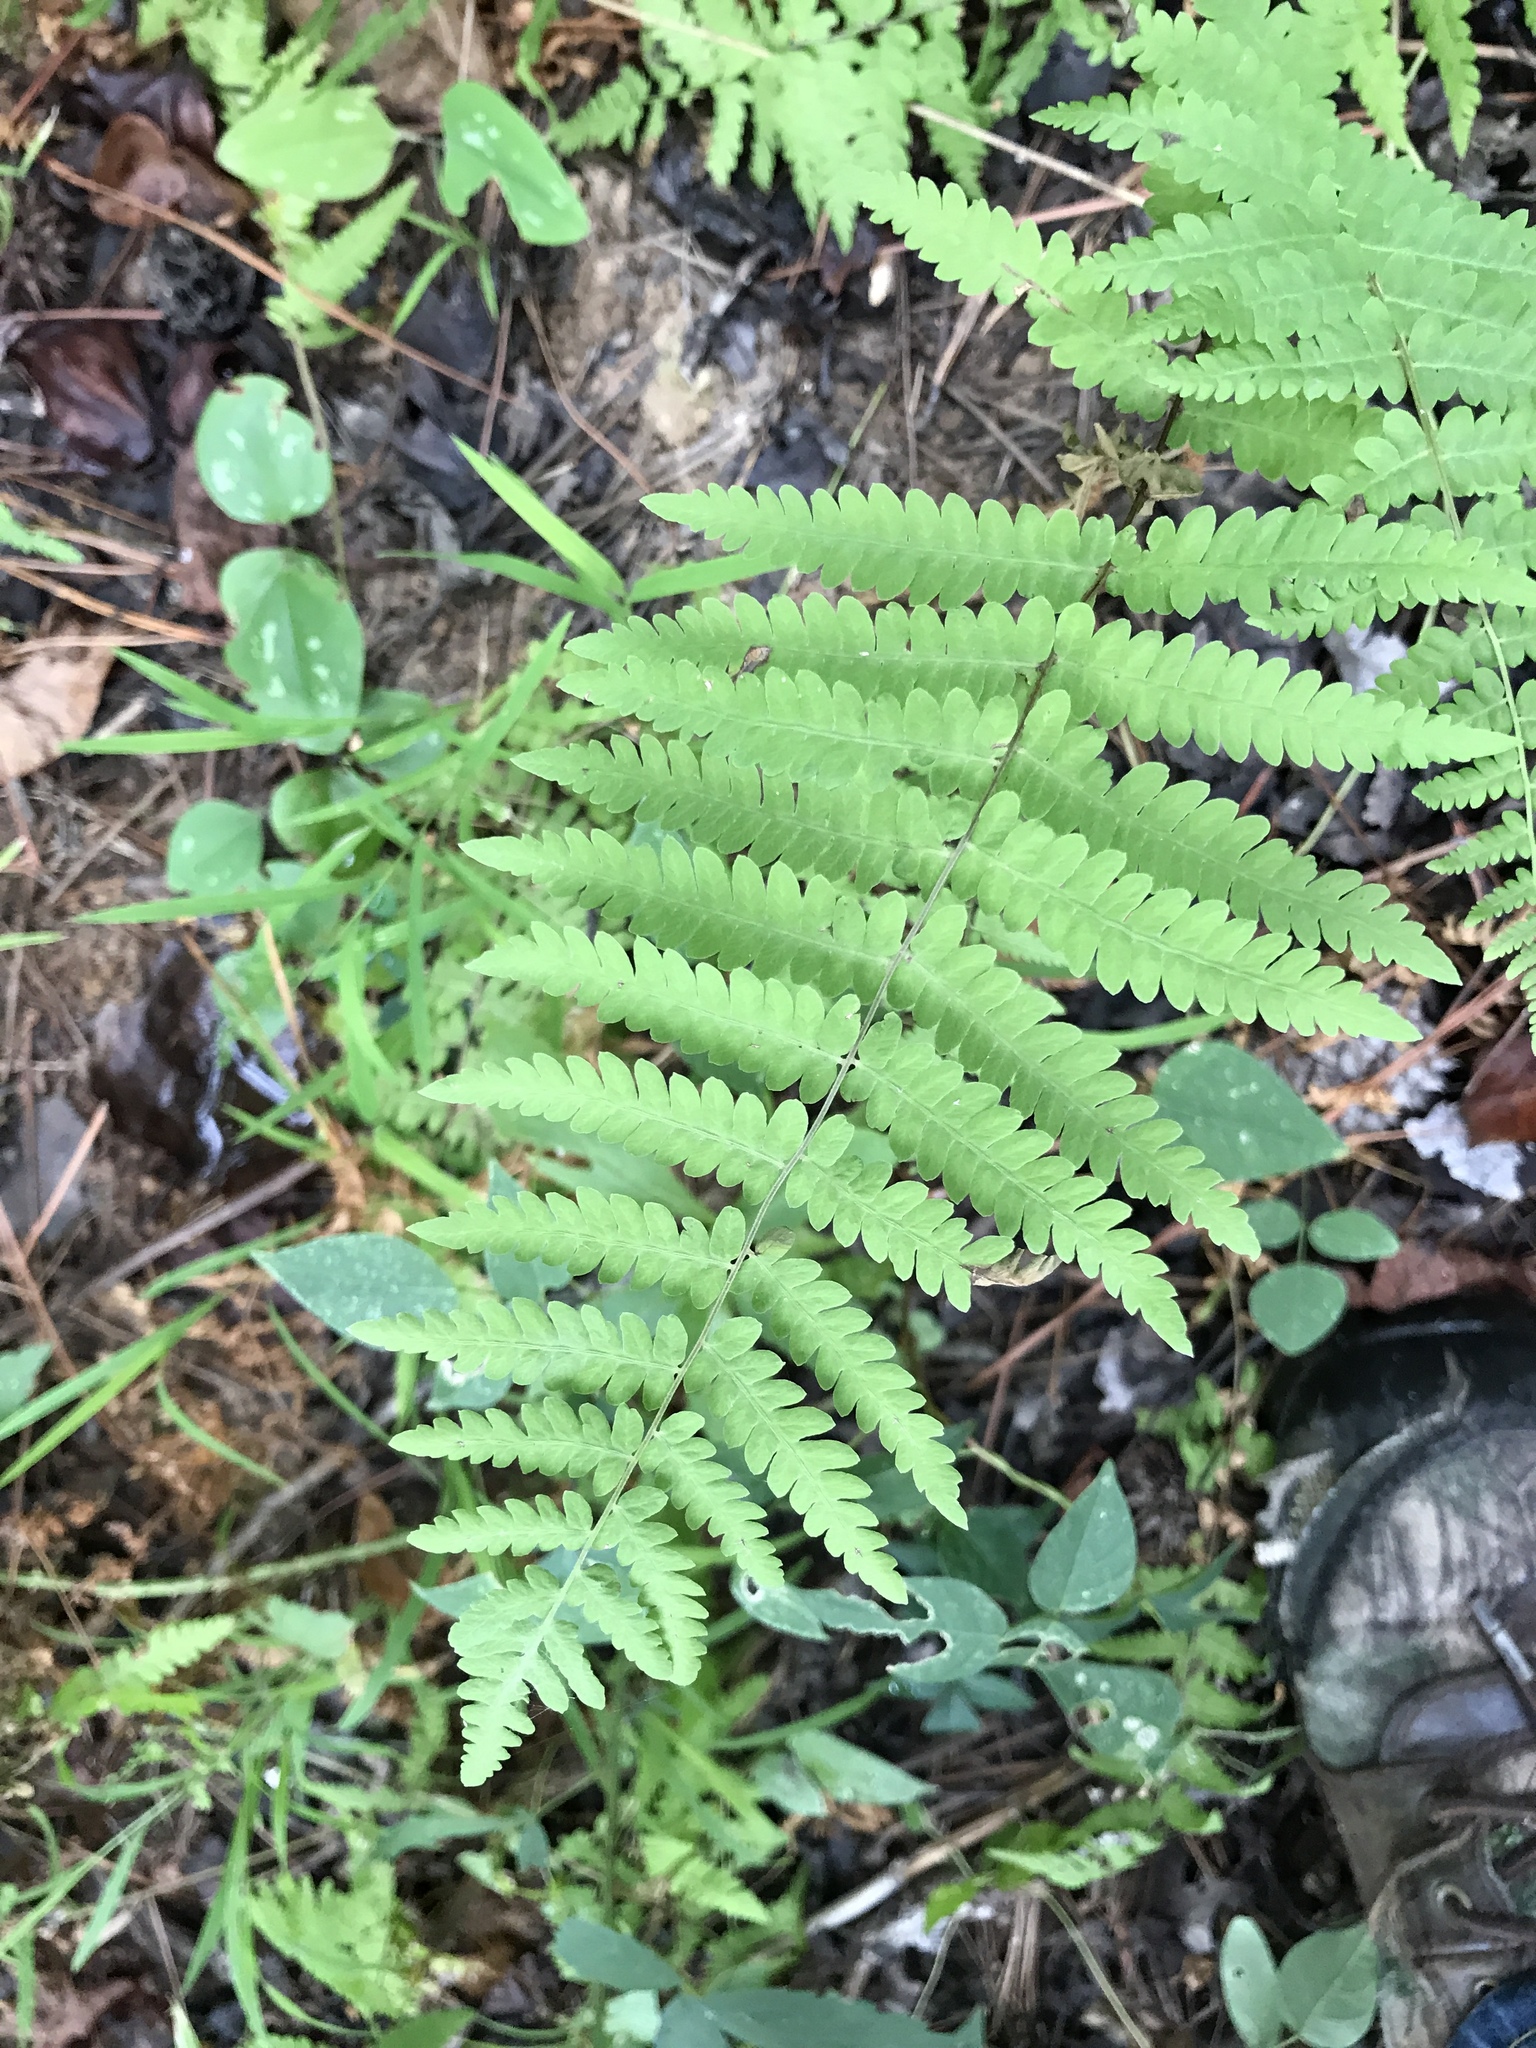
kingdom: Plantae
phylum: Tracheophyta
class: Polypodiopsida
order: Polypodiales
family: Thelypteridaceae
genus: Thelypteris
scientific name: Thelypteris palustris
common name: Marsh fern
